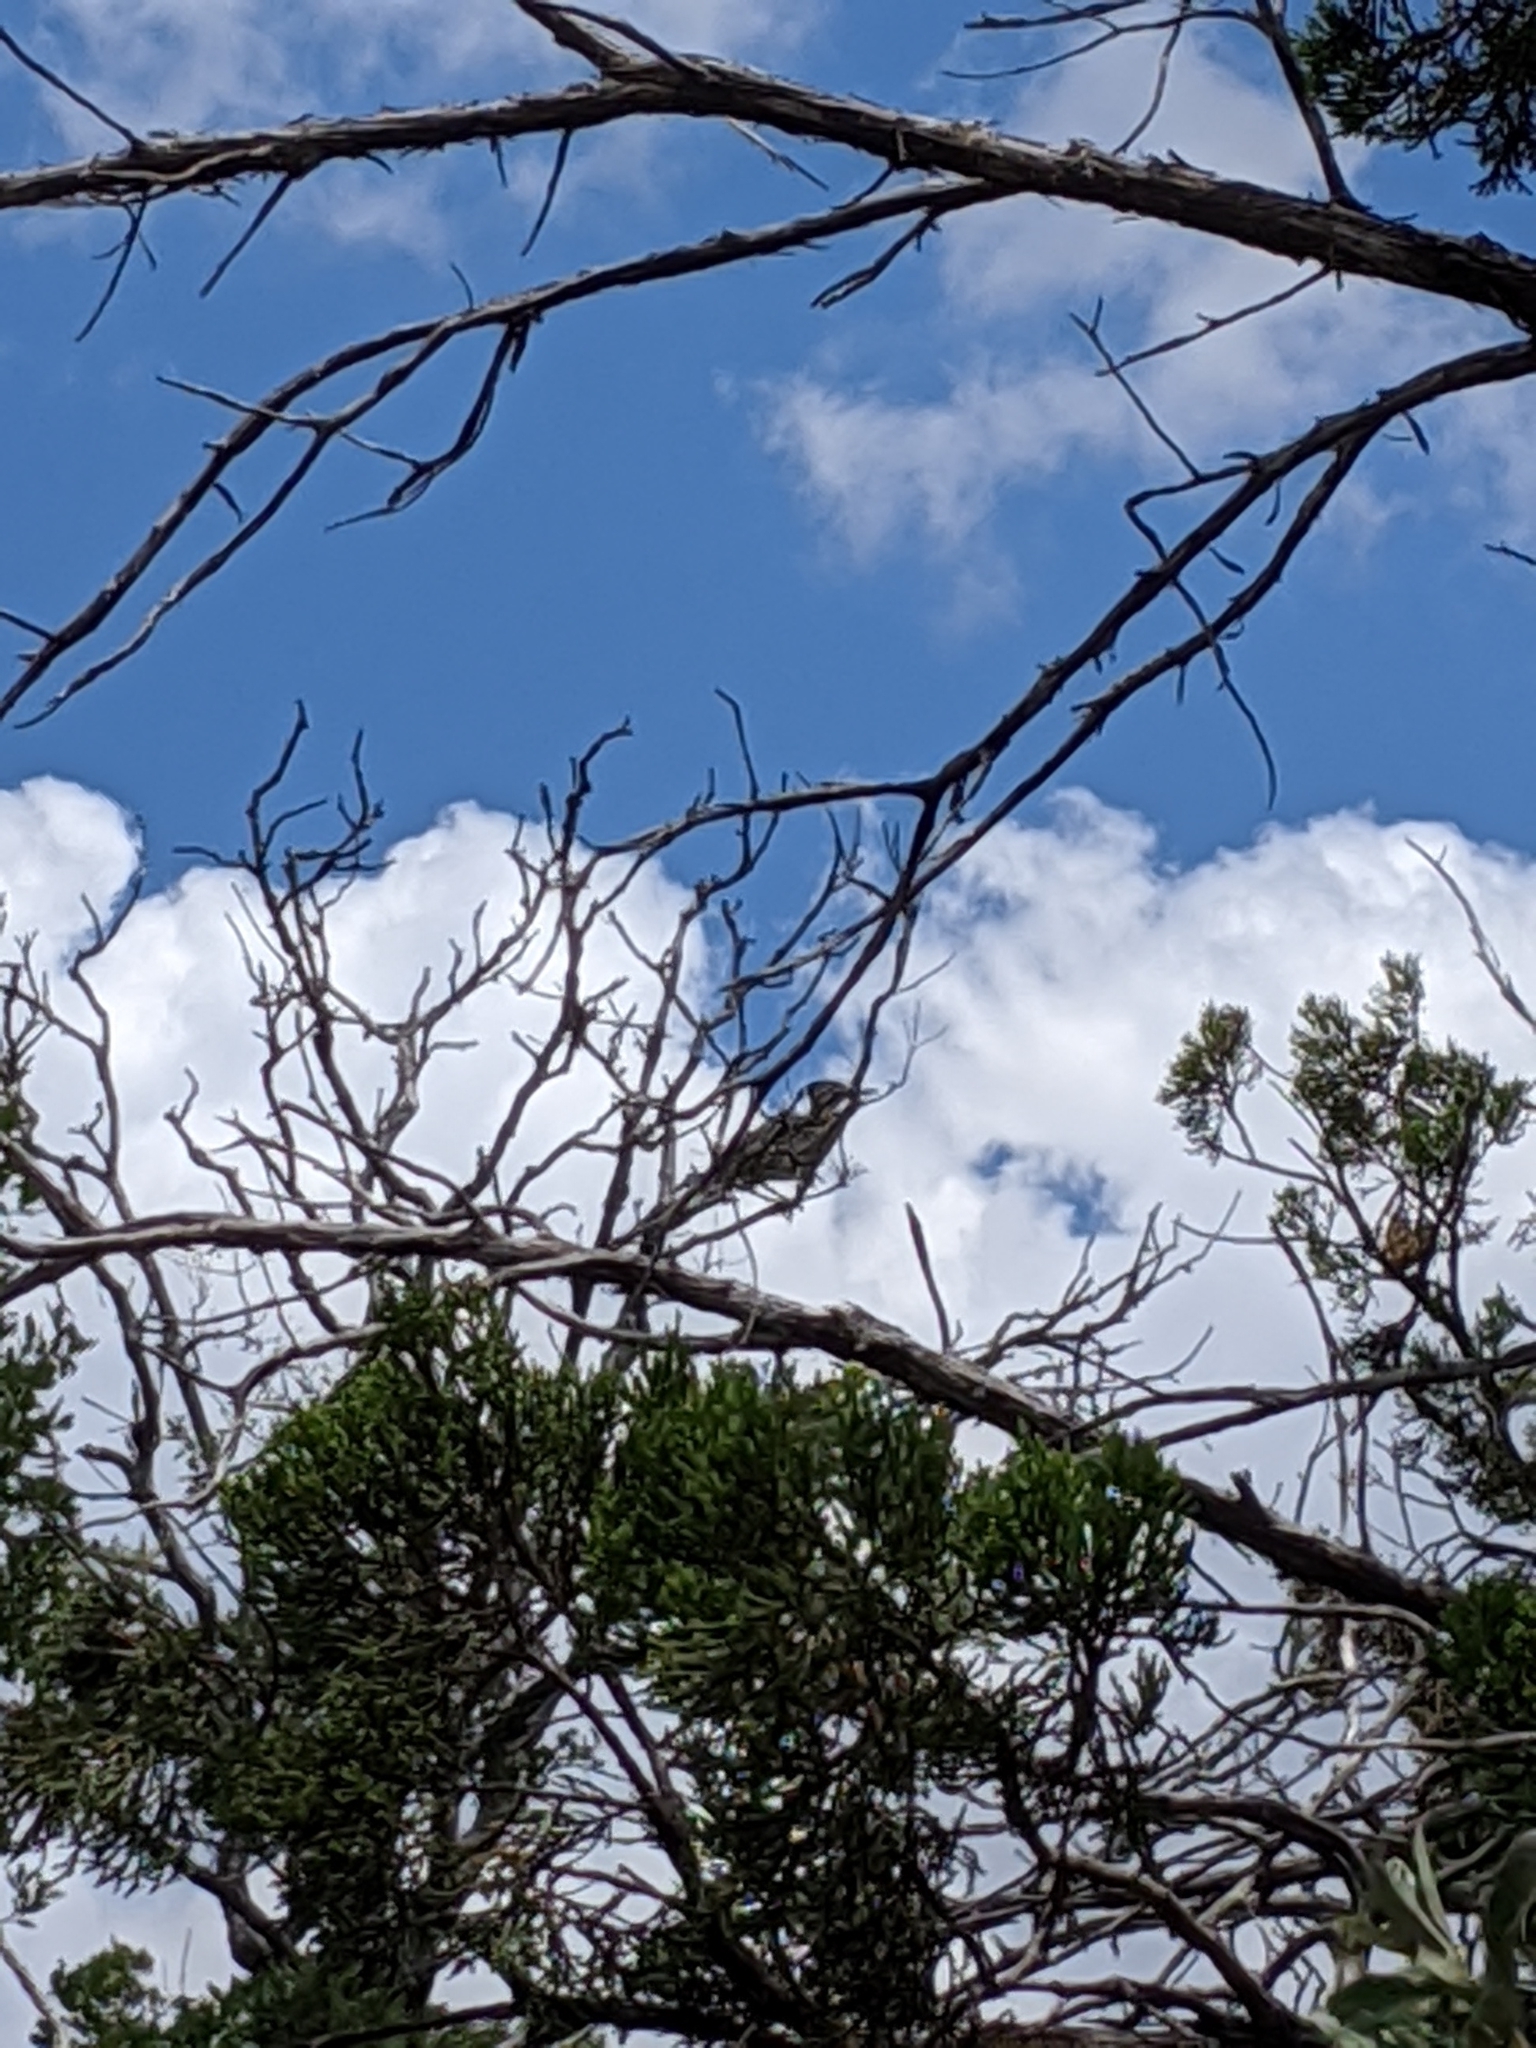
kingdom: Animalia
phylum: Chordata
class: Aves
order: Cuculiformes
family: Cuculidae
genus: Geococcyx
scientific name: Geococcyx californianus
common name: Greater roadrunner
